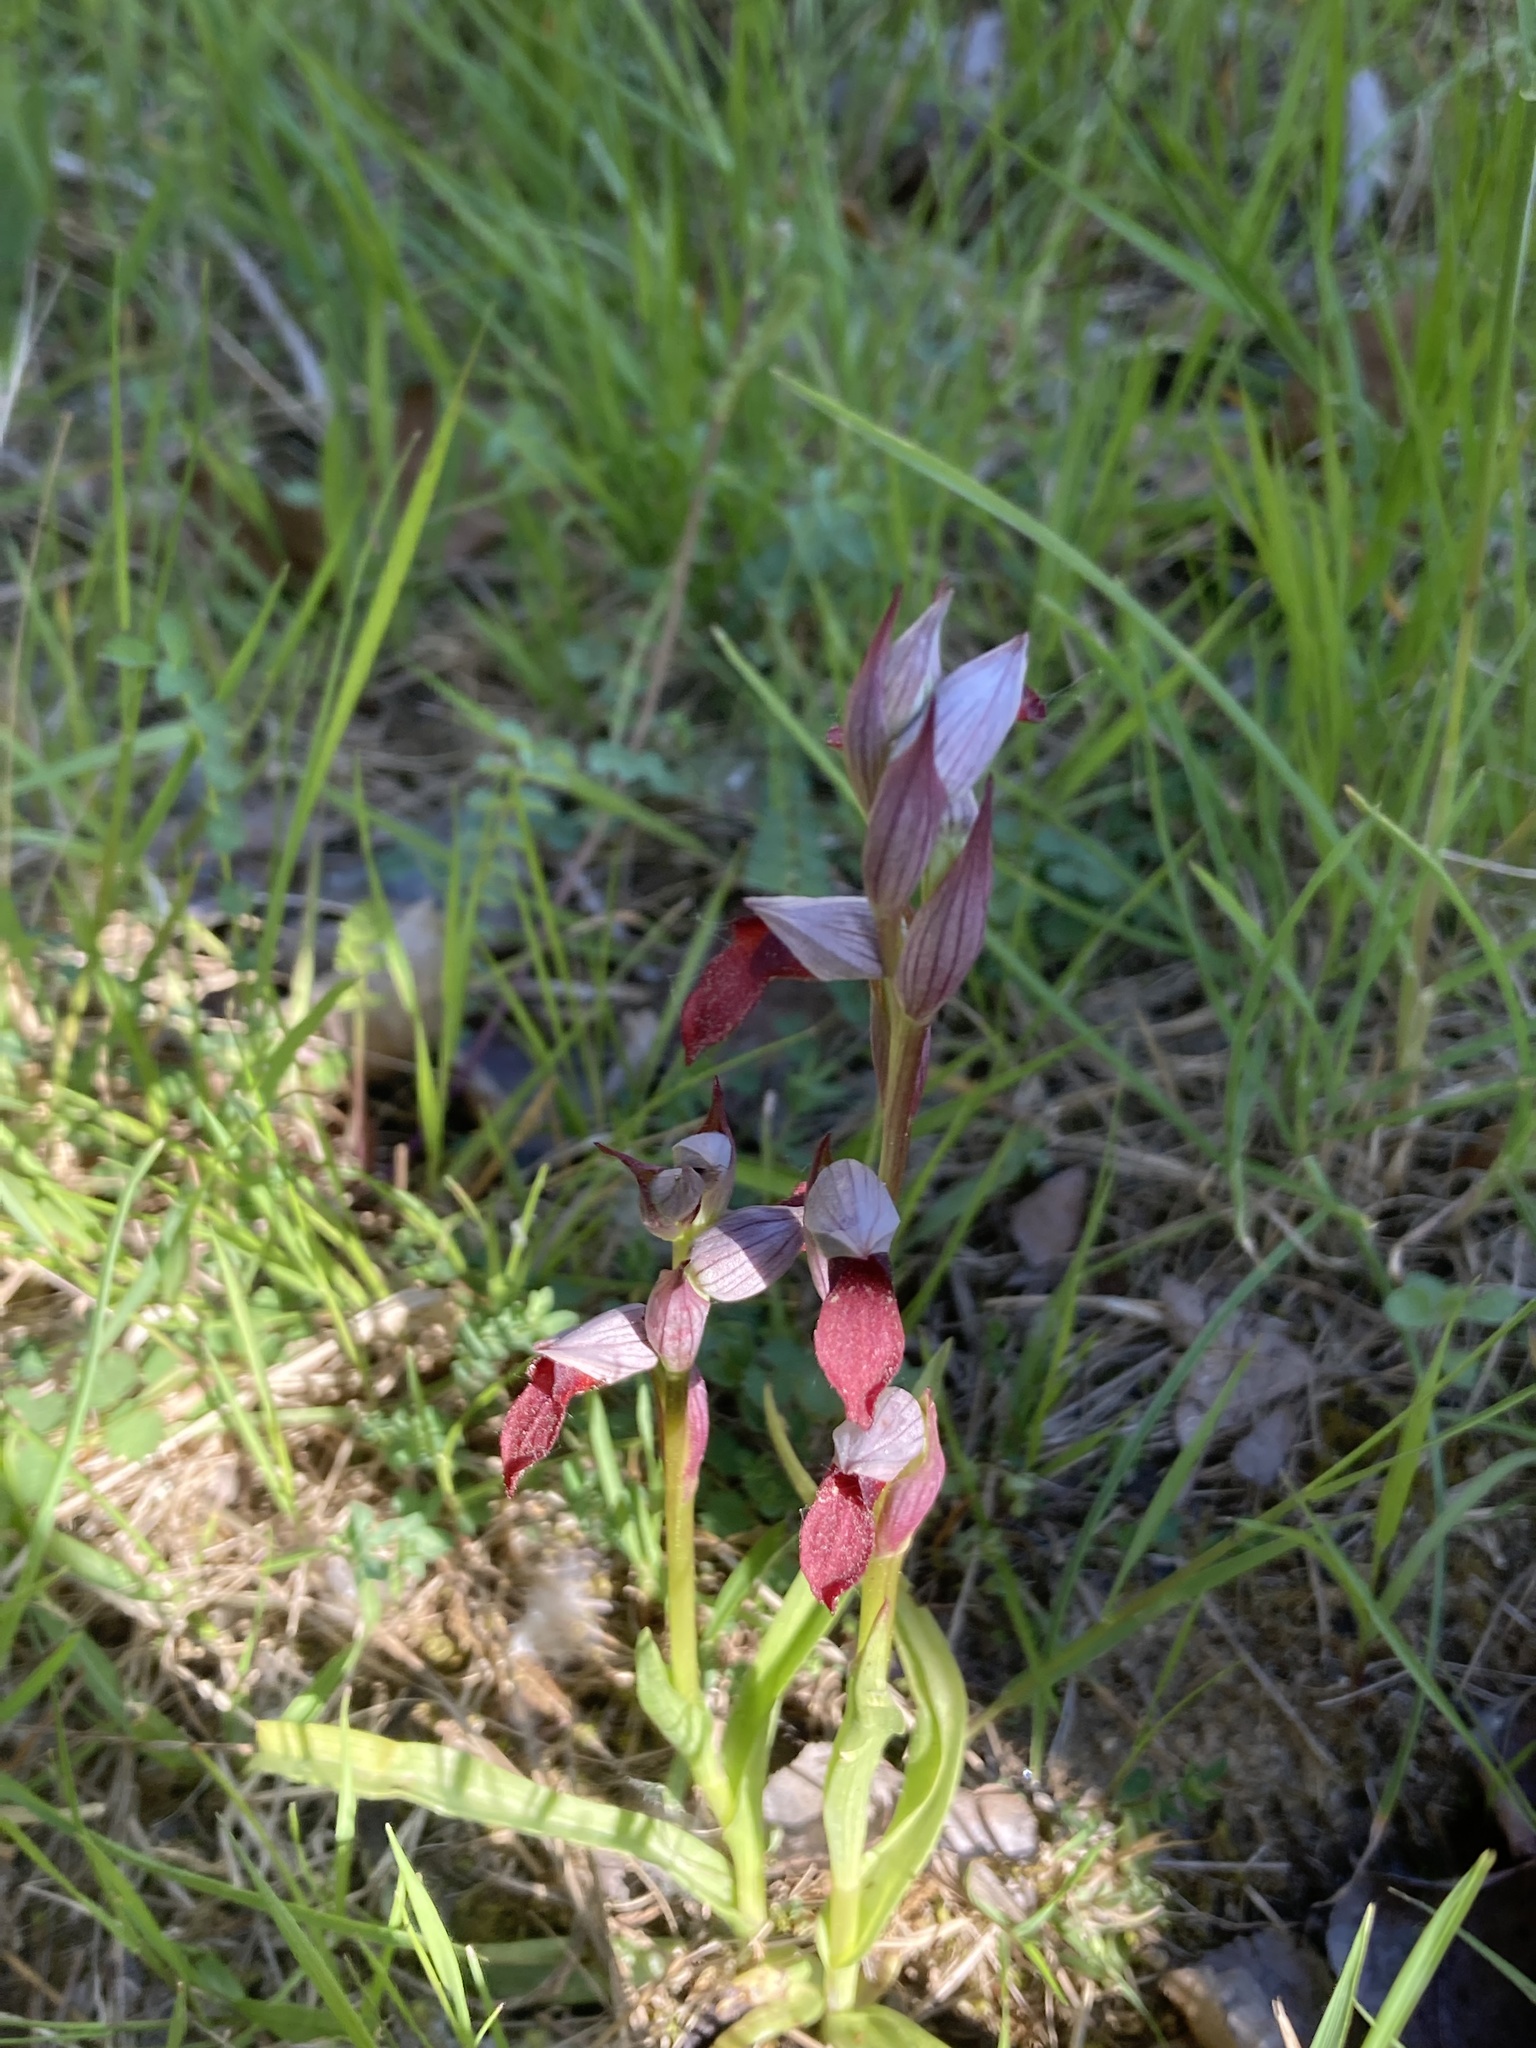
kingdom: Plantae
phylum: Tracheophyta
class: Liliopsida
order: Asparagales
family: Orchidaceae
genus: Serapias
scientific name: Serapias lingua
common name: Tongue-orchid
